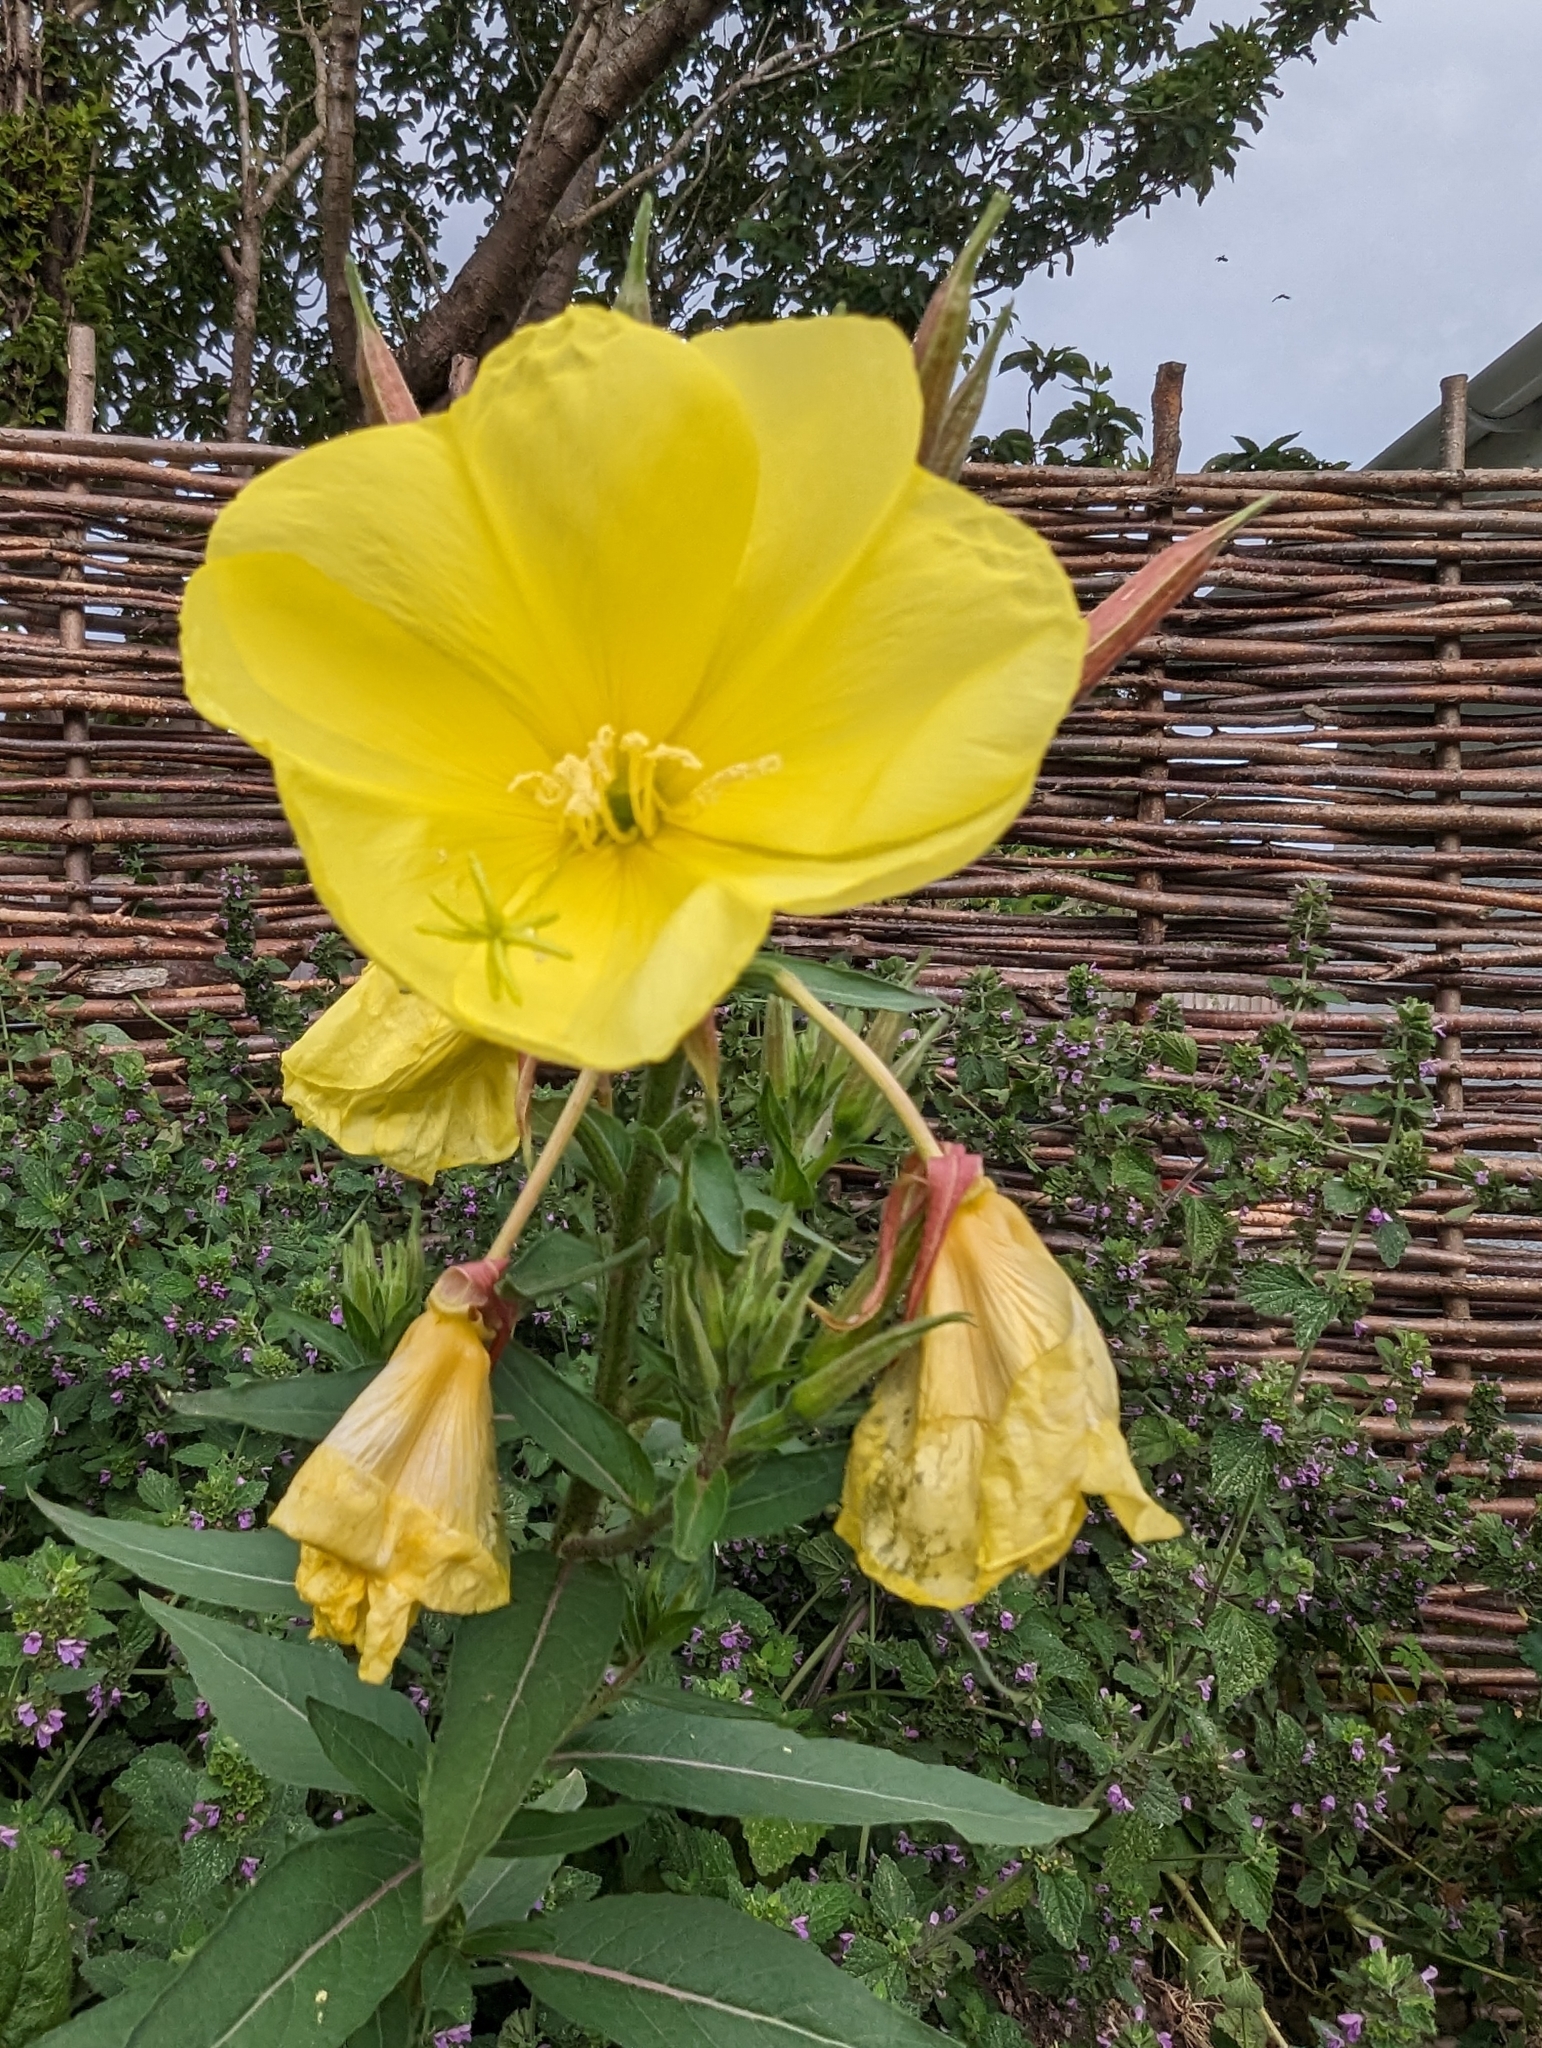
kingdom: Plantae
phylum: Tracheophyta
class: Magnoliopsida
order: Myrtales
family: Onagraceae
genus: Oenothera
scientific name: Oenothera glazioviana
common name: Large-flowered evening-primrose
